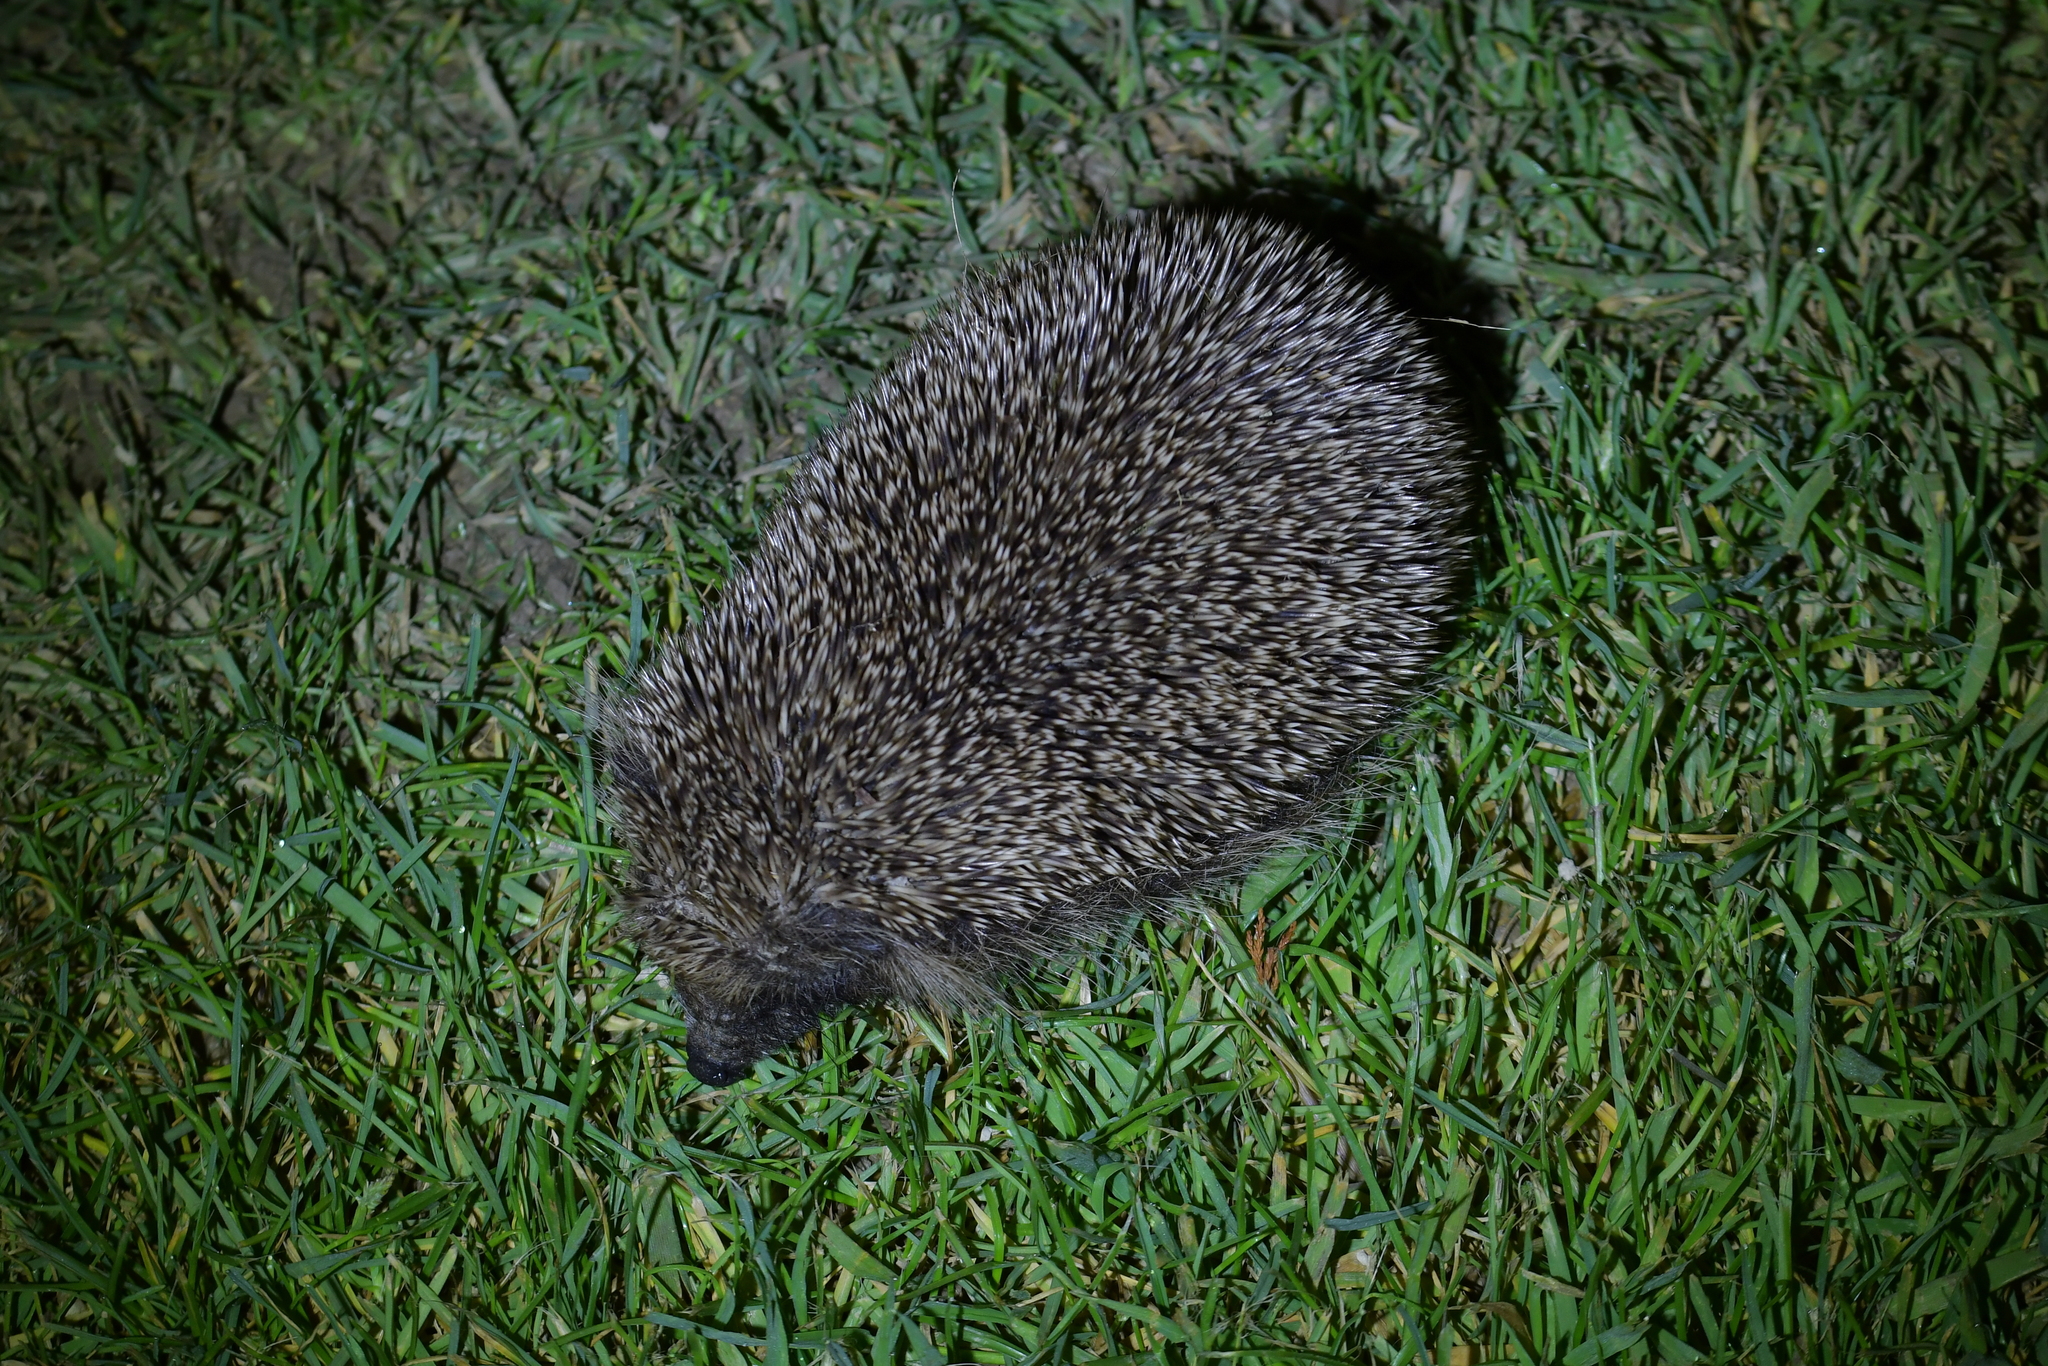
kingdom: Animalia
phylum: Chordata
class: Mammalia
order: Erinaceomorpha
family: Erinaceidae
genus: Erinaceus
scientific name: Erinaceus europaeus
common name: West european hedgehog
